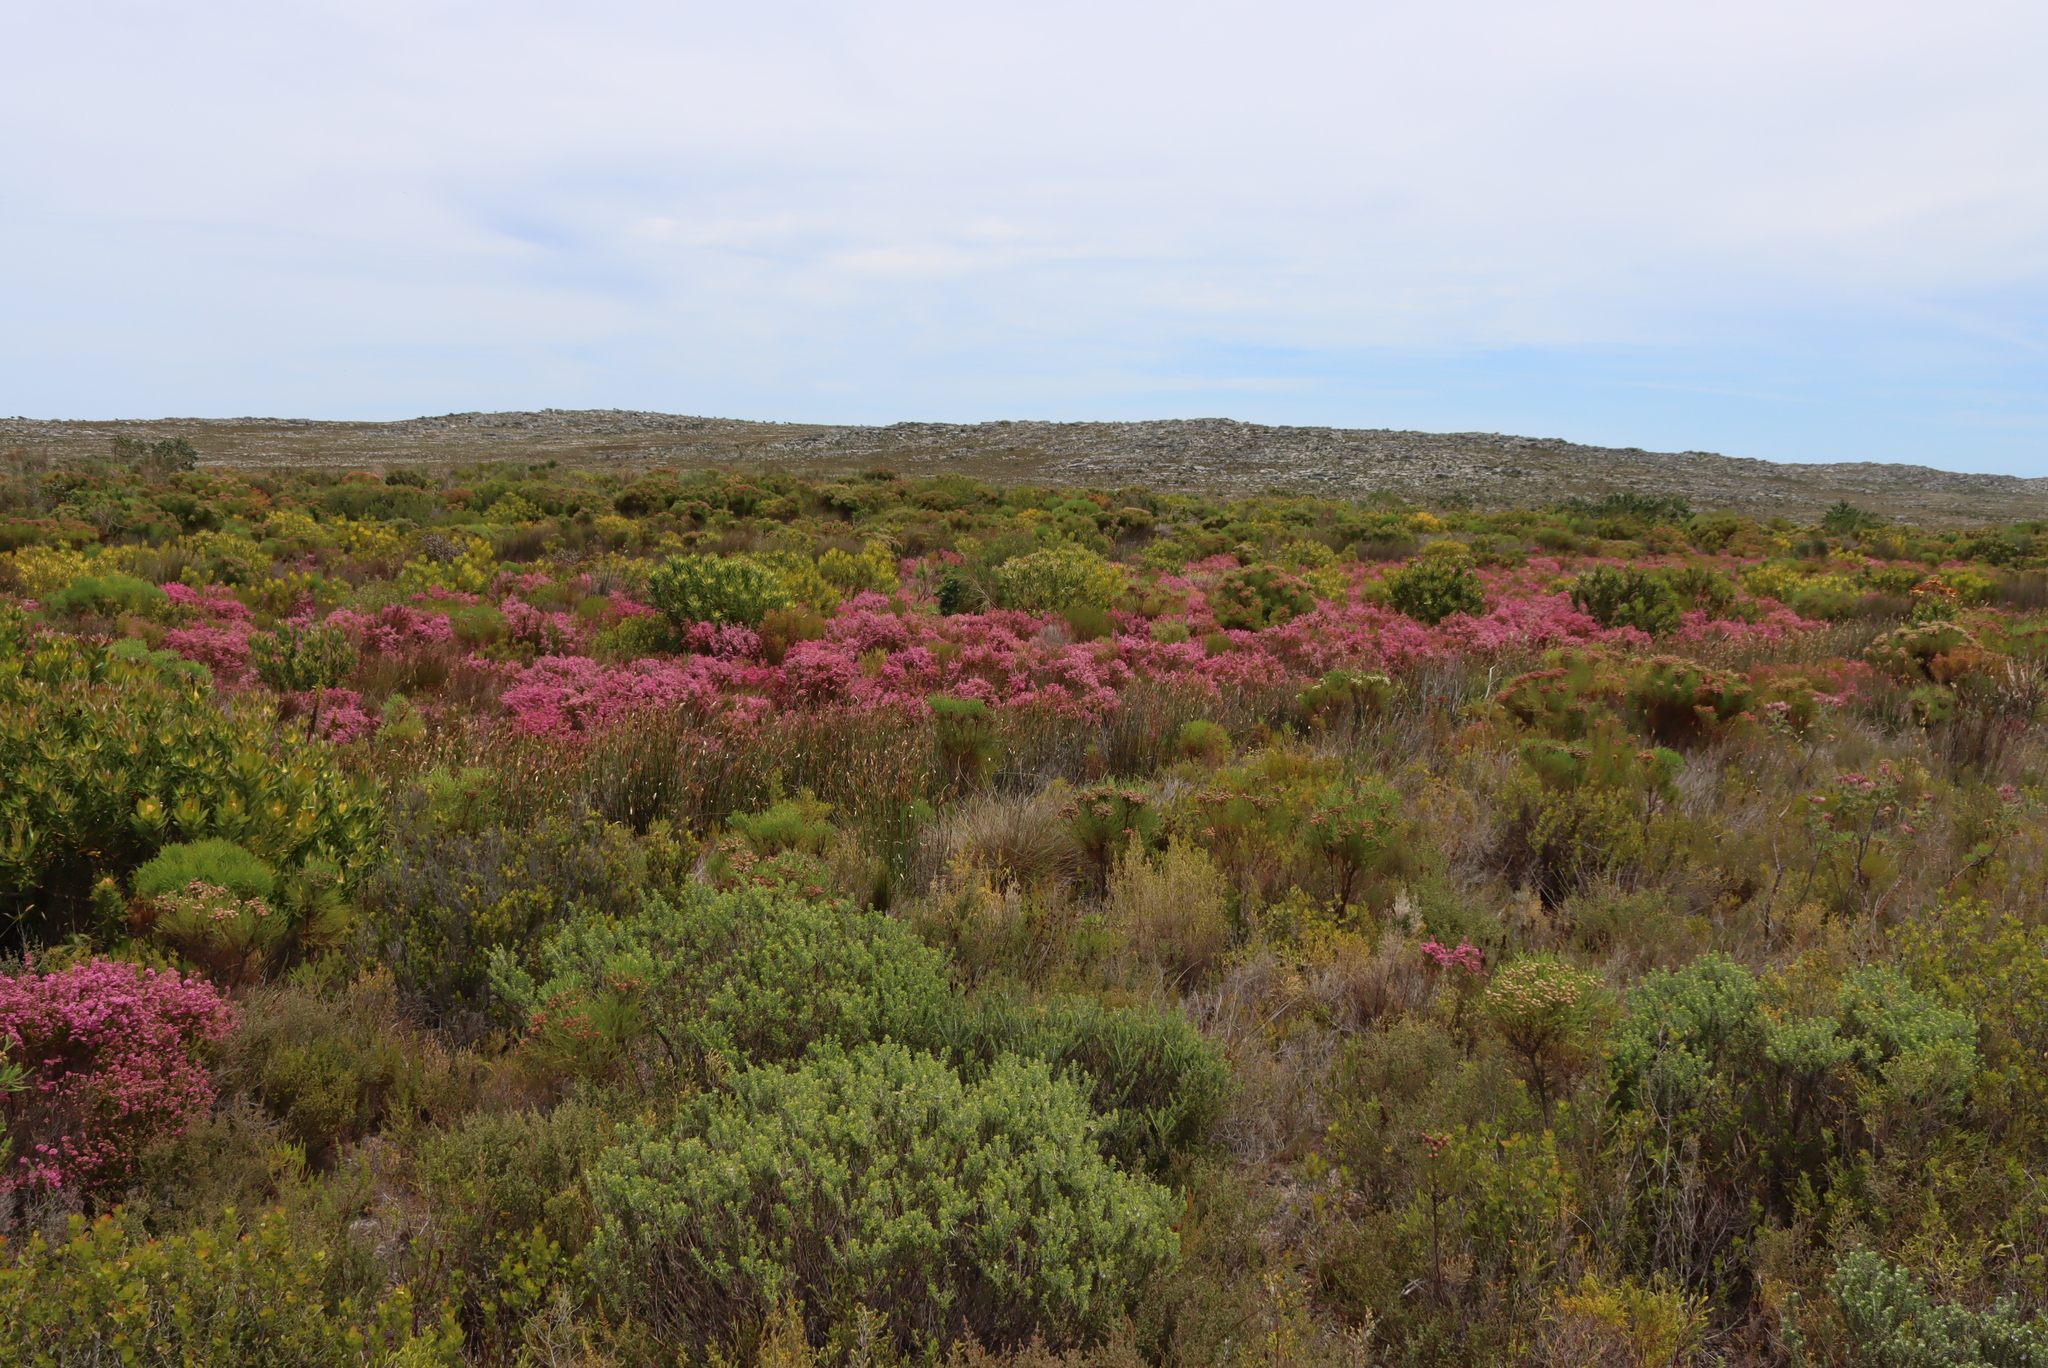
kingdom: Plantae
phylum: Tracheophyta
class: Magnoliopsida
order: Ericales
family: Ericaceae
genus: Erica
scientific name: Erica laeta
